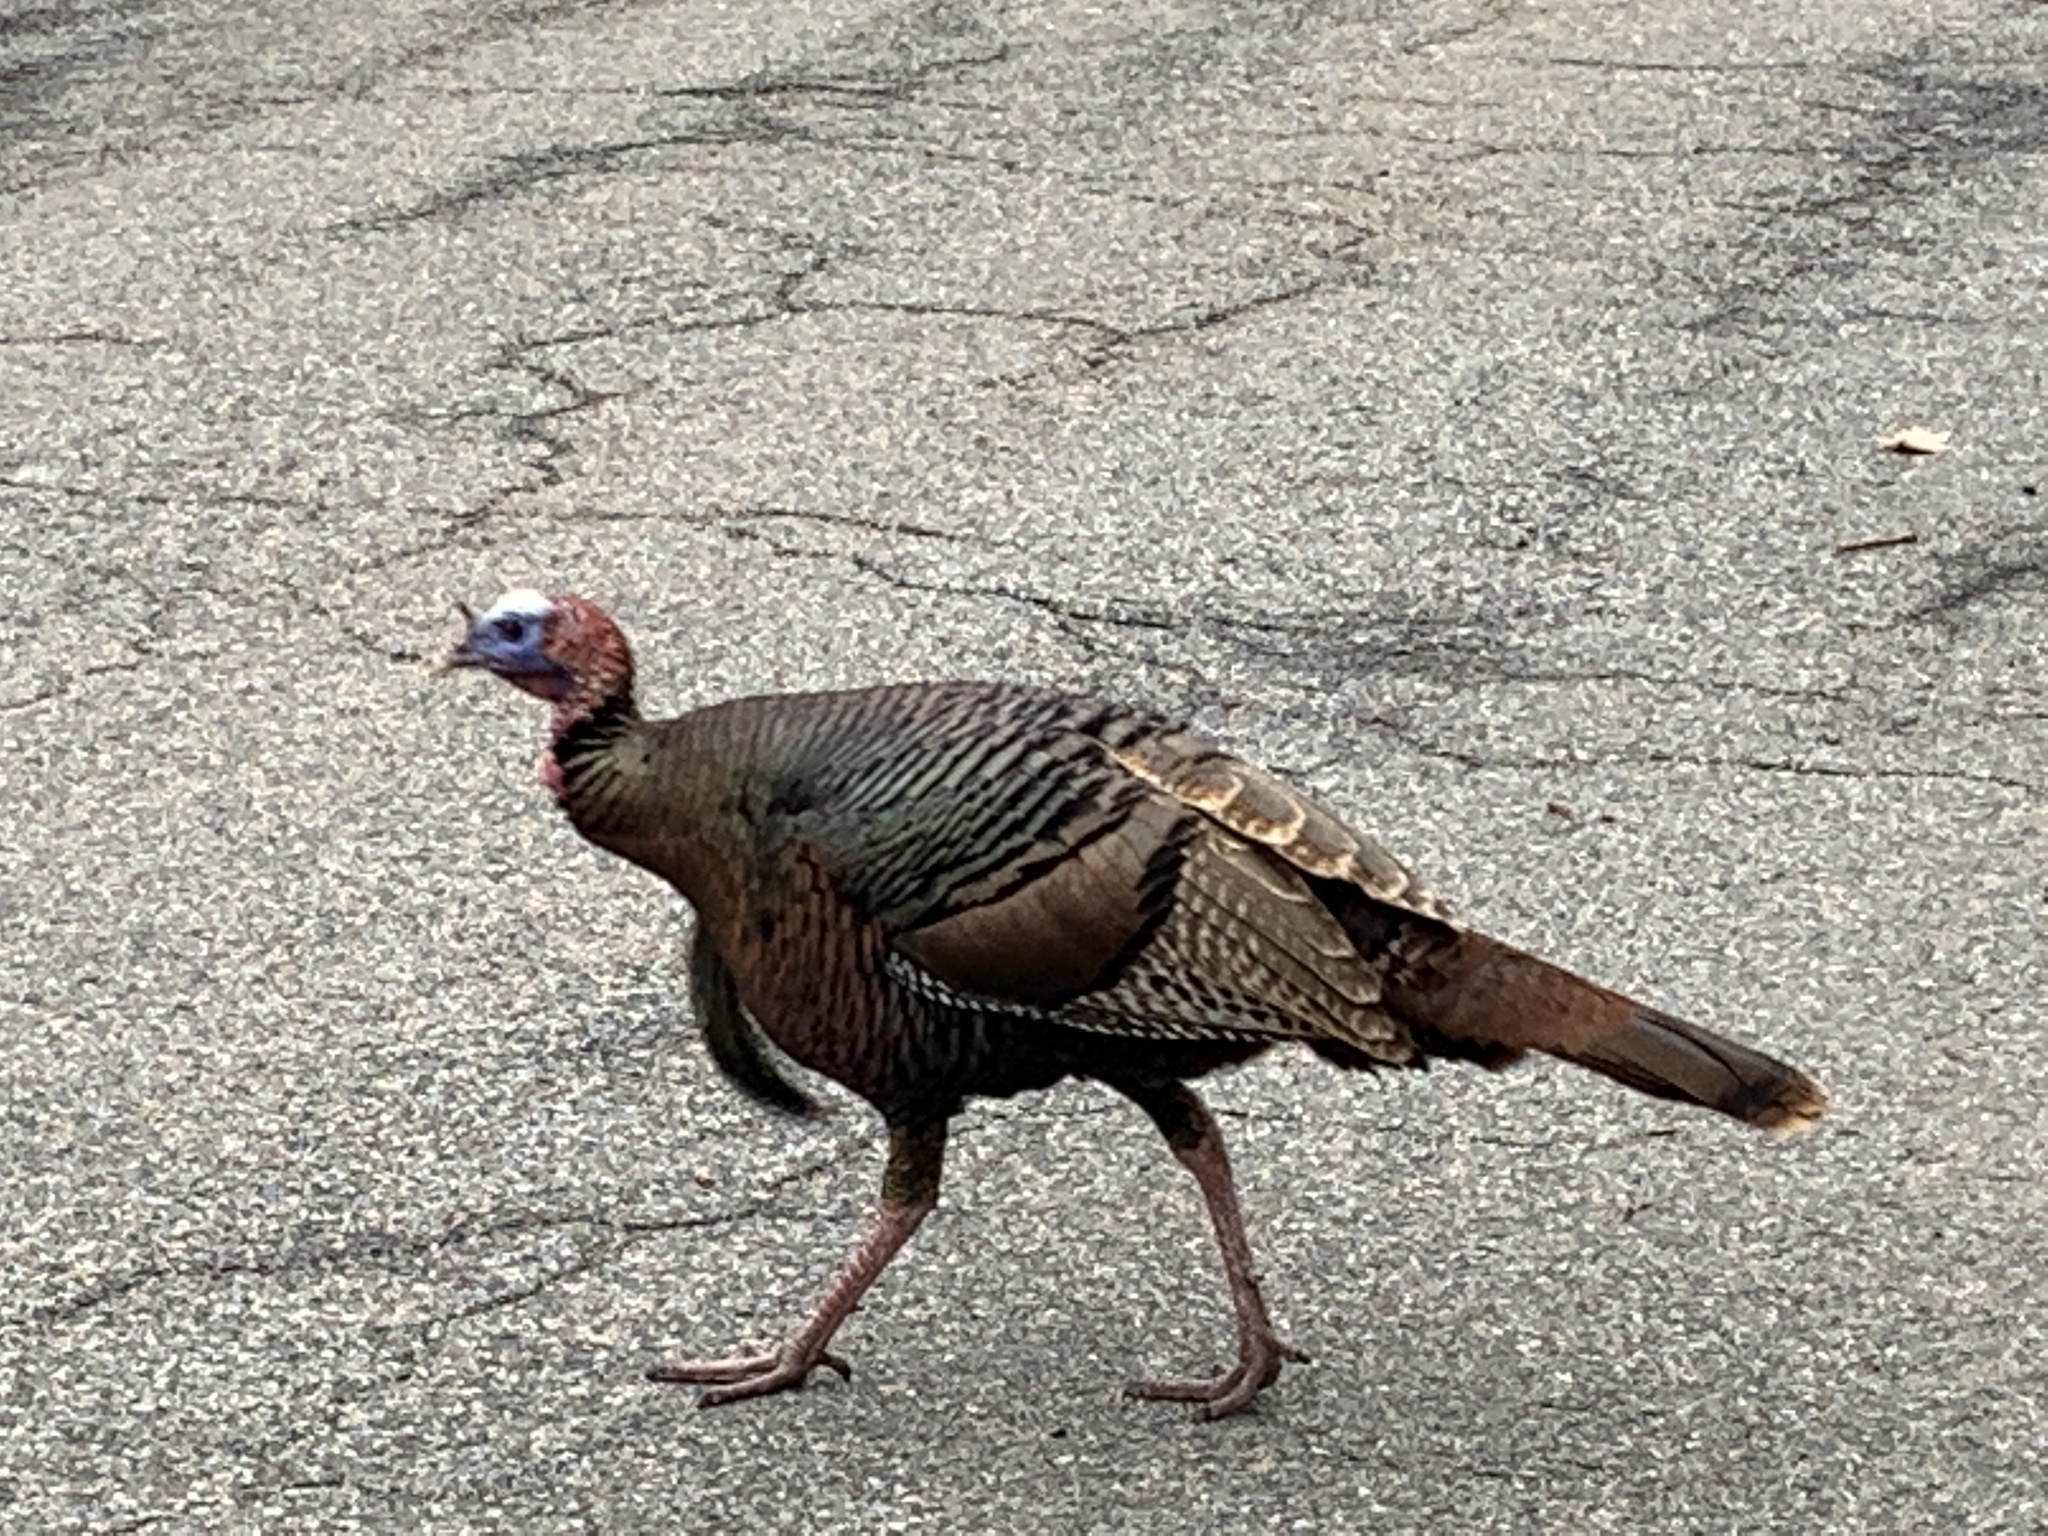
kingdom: Animalia
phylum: Chordata
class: Aves
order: Galliformes
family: Phasianidae
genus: Meleagris
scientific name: Meleagris gallopavo
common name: Wild turkey
